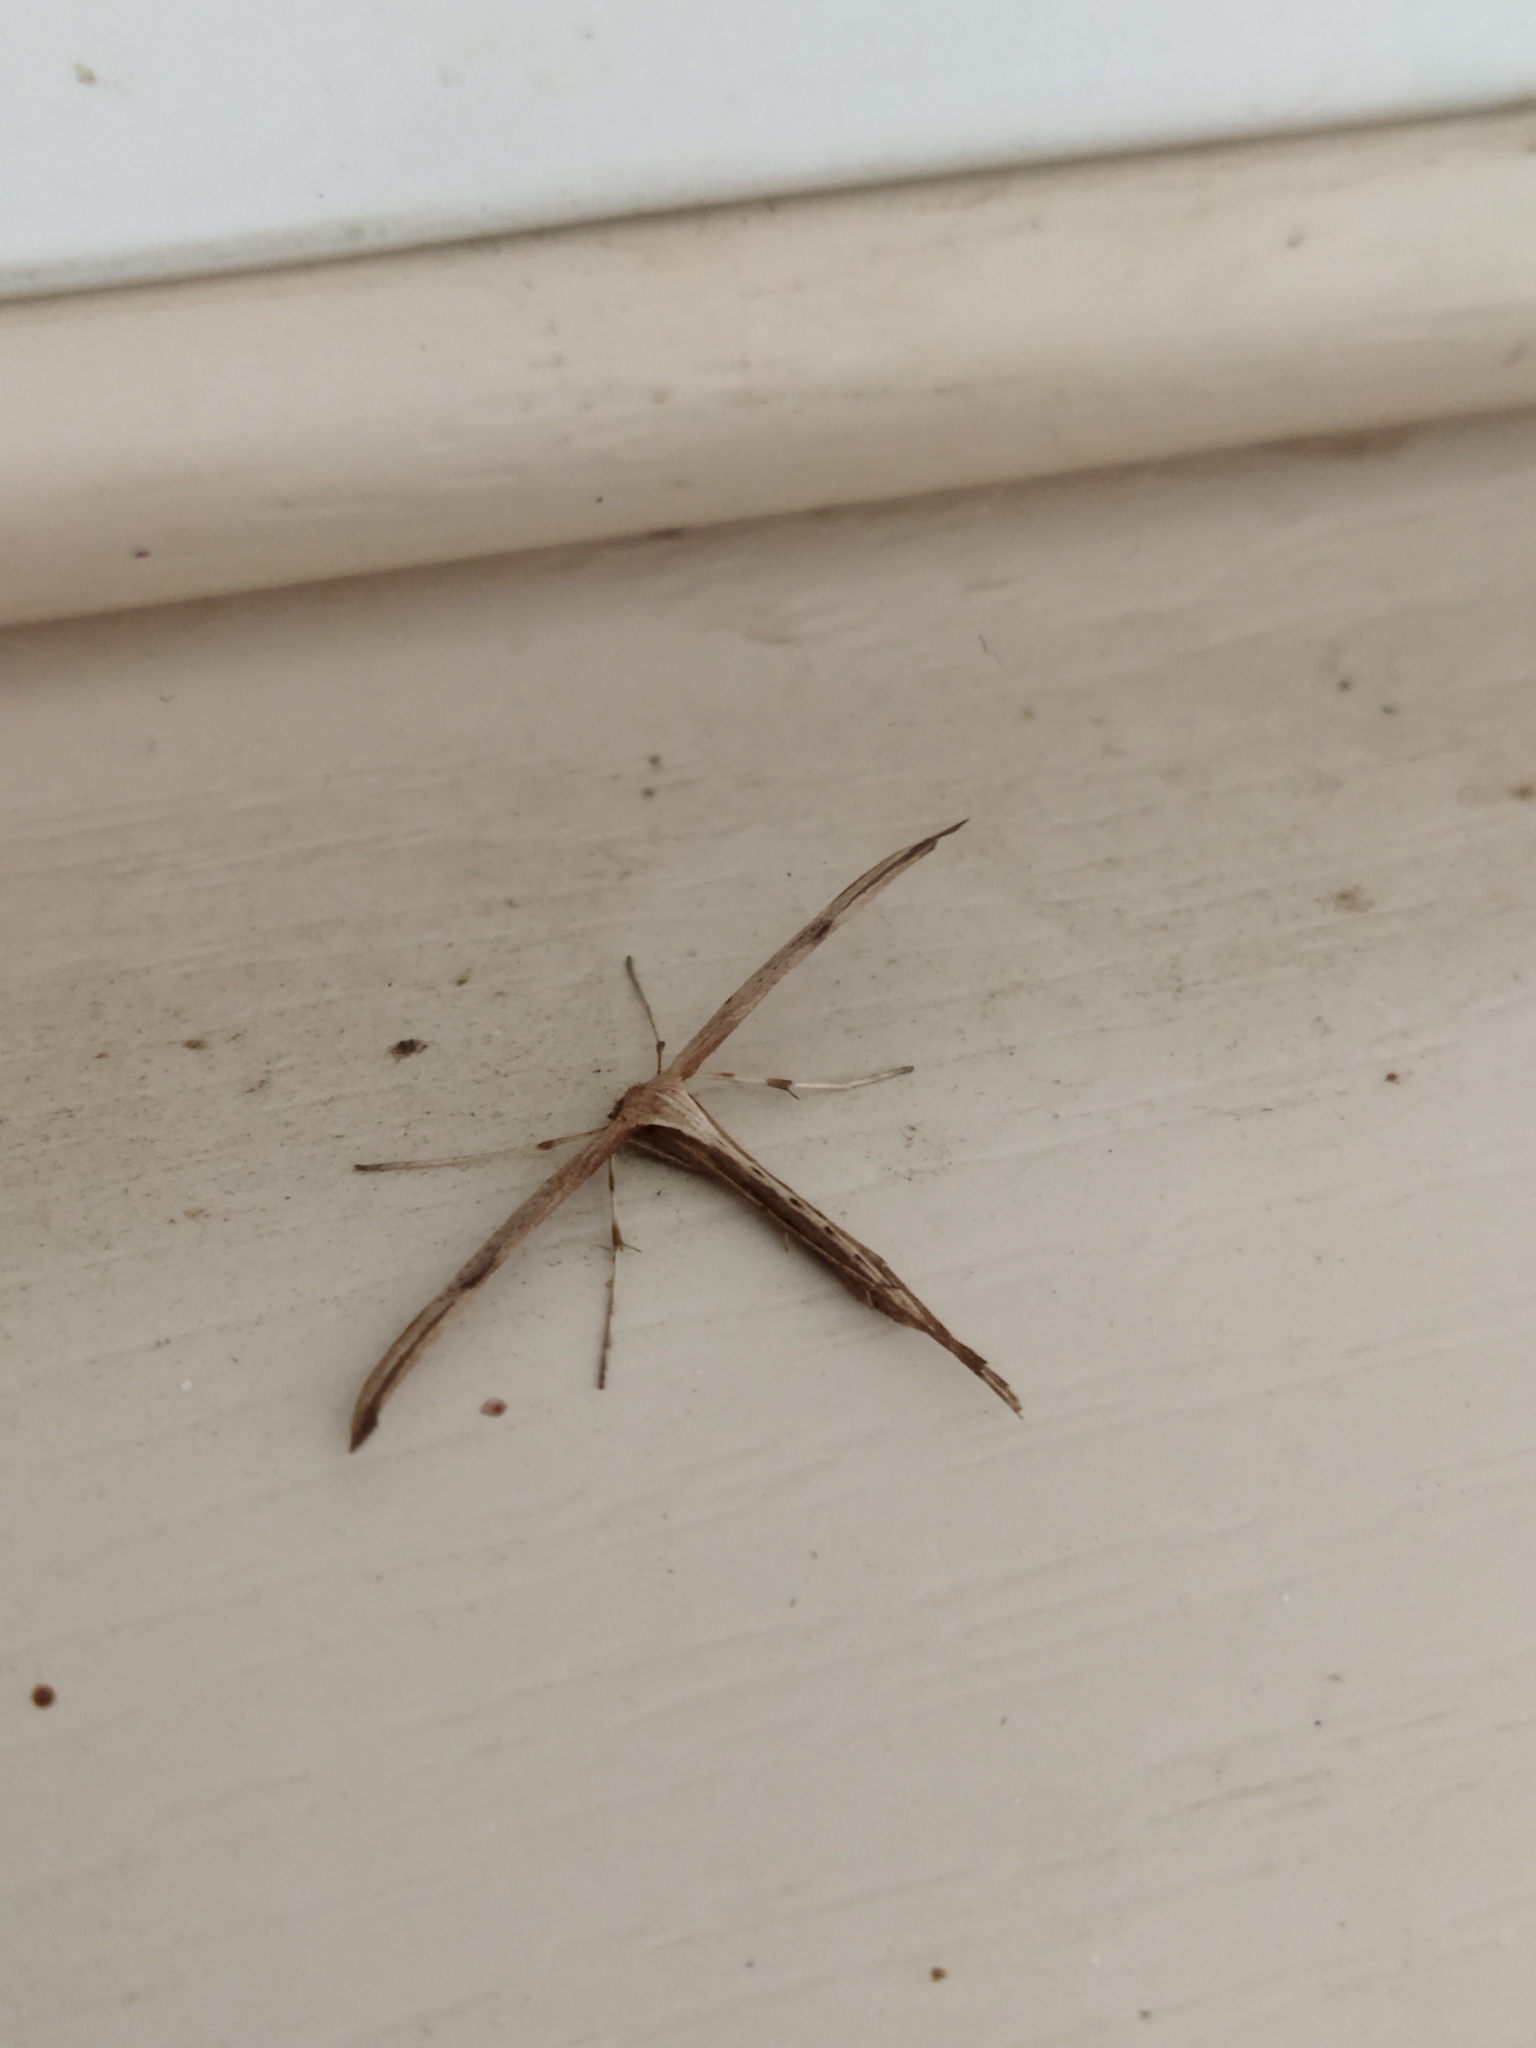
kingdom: Animalia
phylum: Arthropoda
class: Insecta
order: Lepidoptera
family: Pterophoridae
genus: Emmelina
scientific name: Emmelina monodactyla
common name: Common plume
